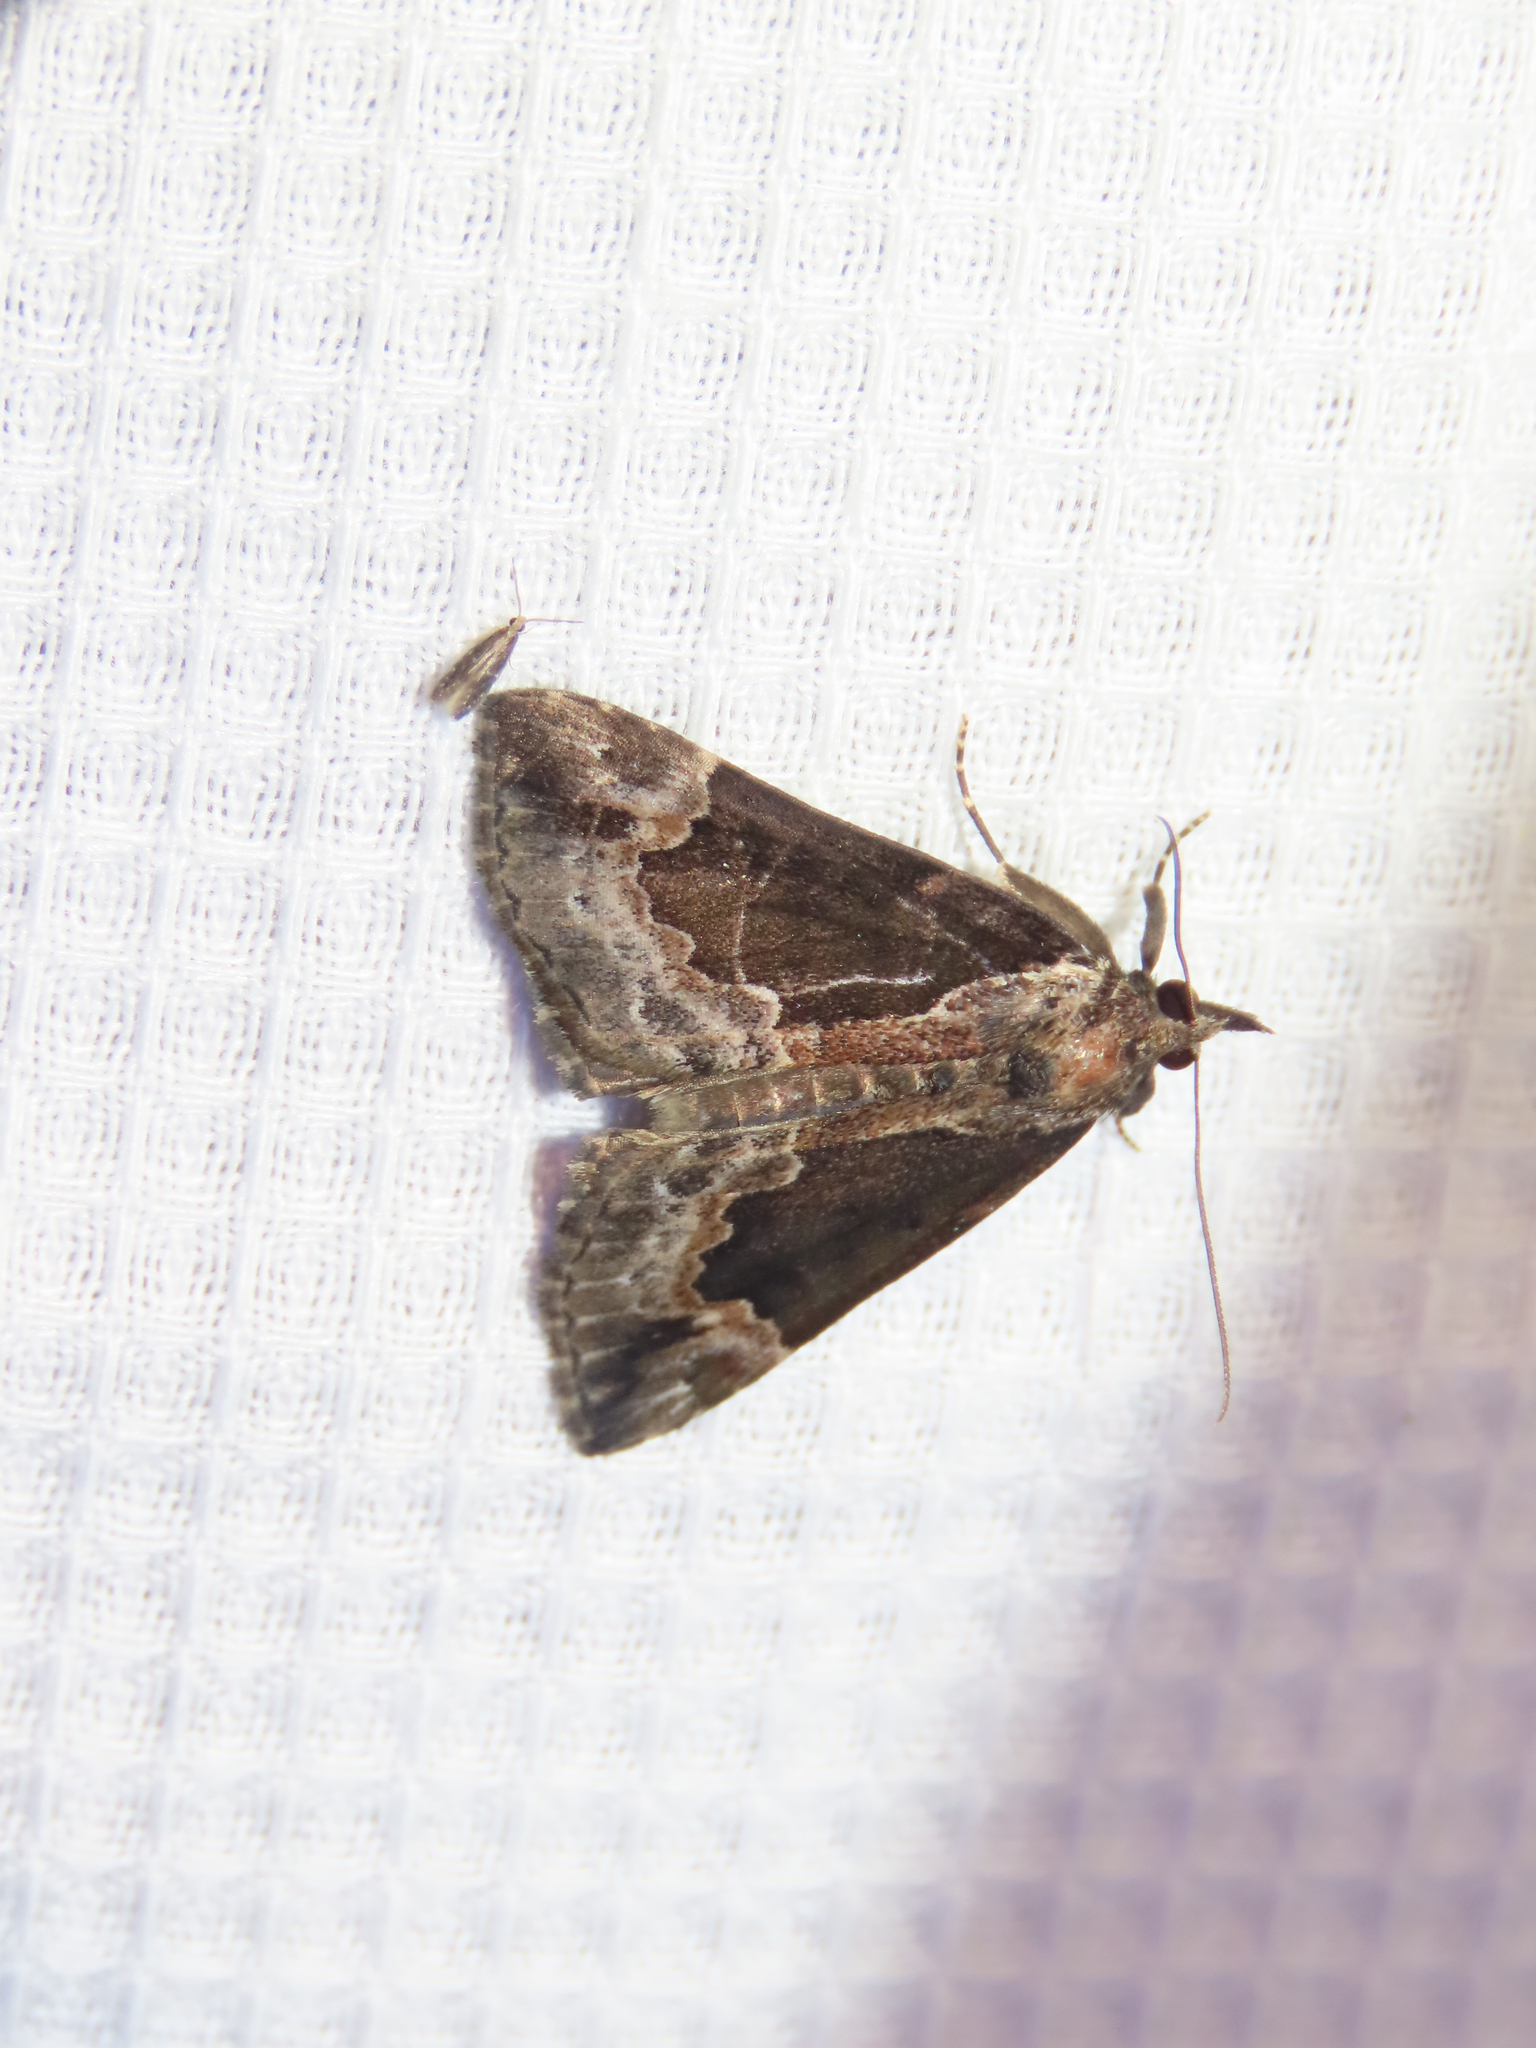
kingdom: Animalia
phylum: Arthropoda
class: Insecta
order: Lepidoptera
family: Erebidae
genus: Hypena
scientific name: Hypena baltimoralis
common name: Baltimore snout
